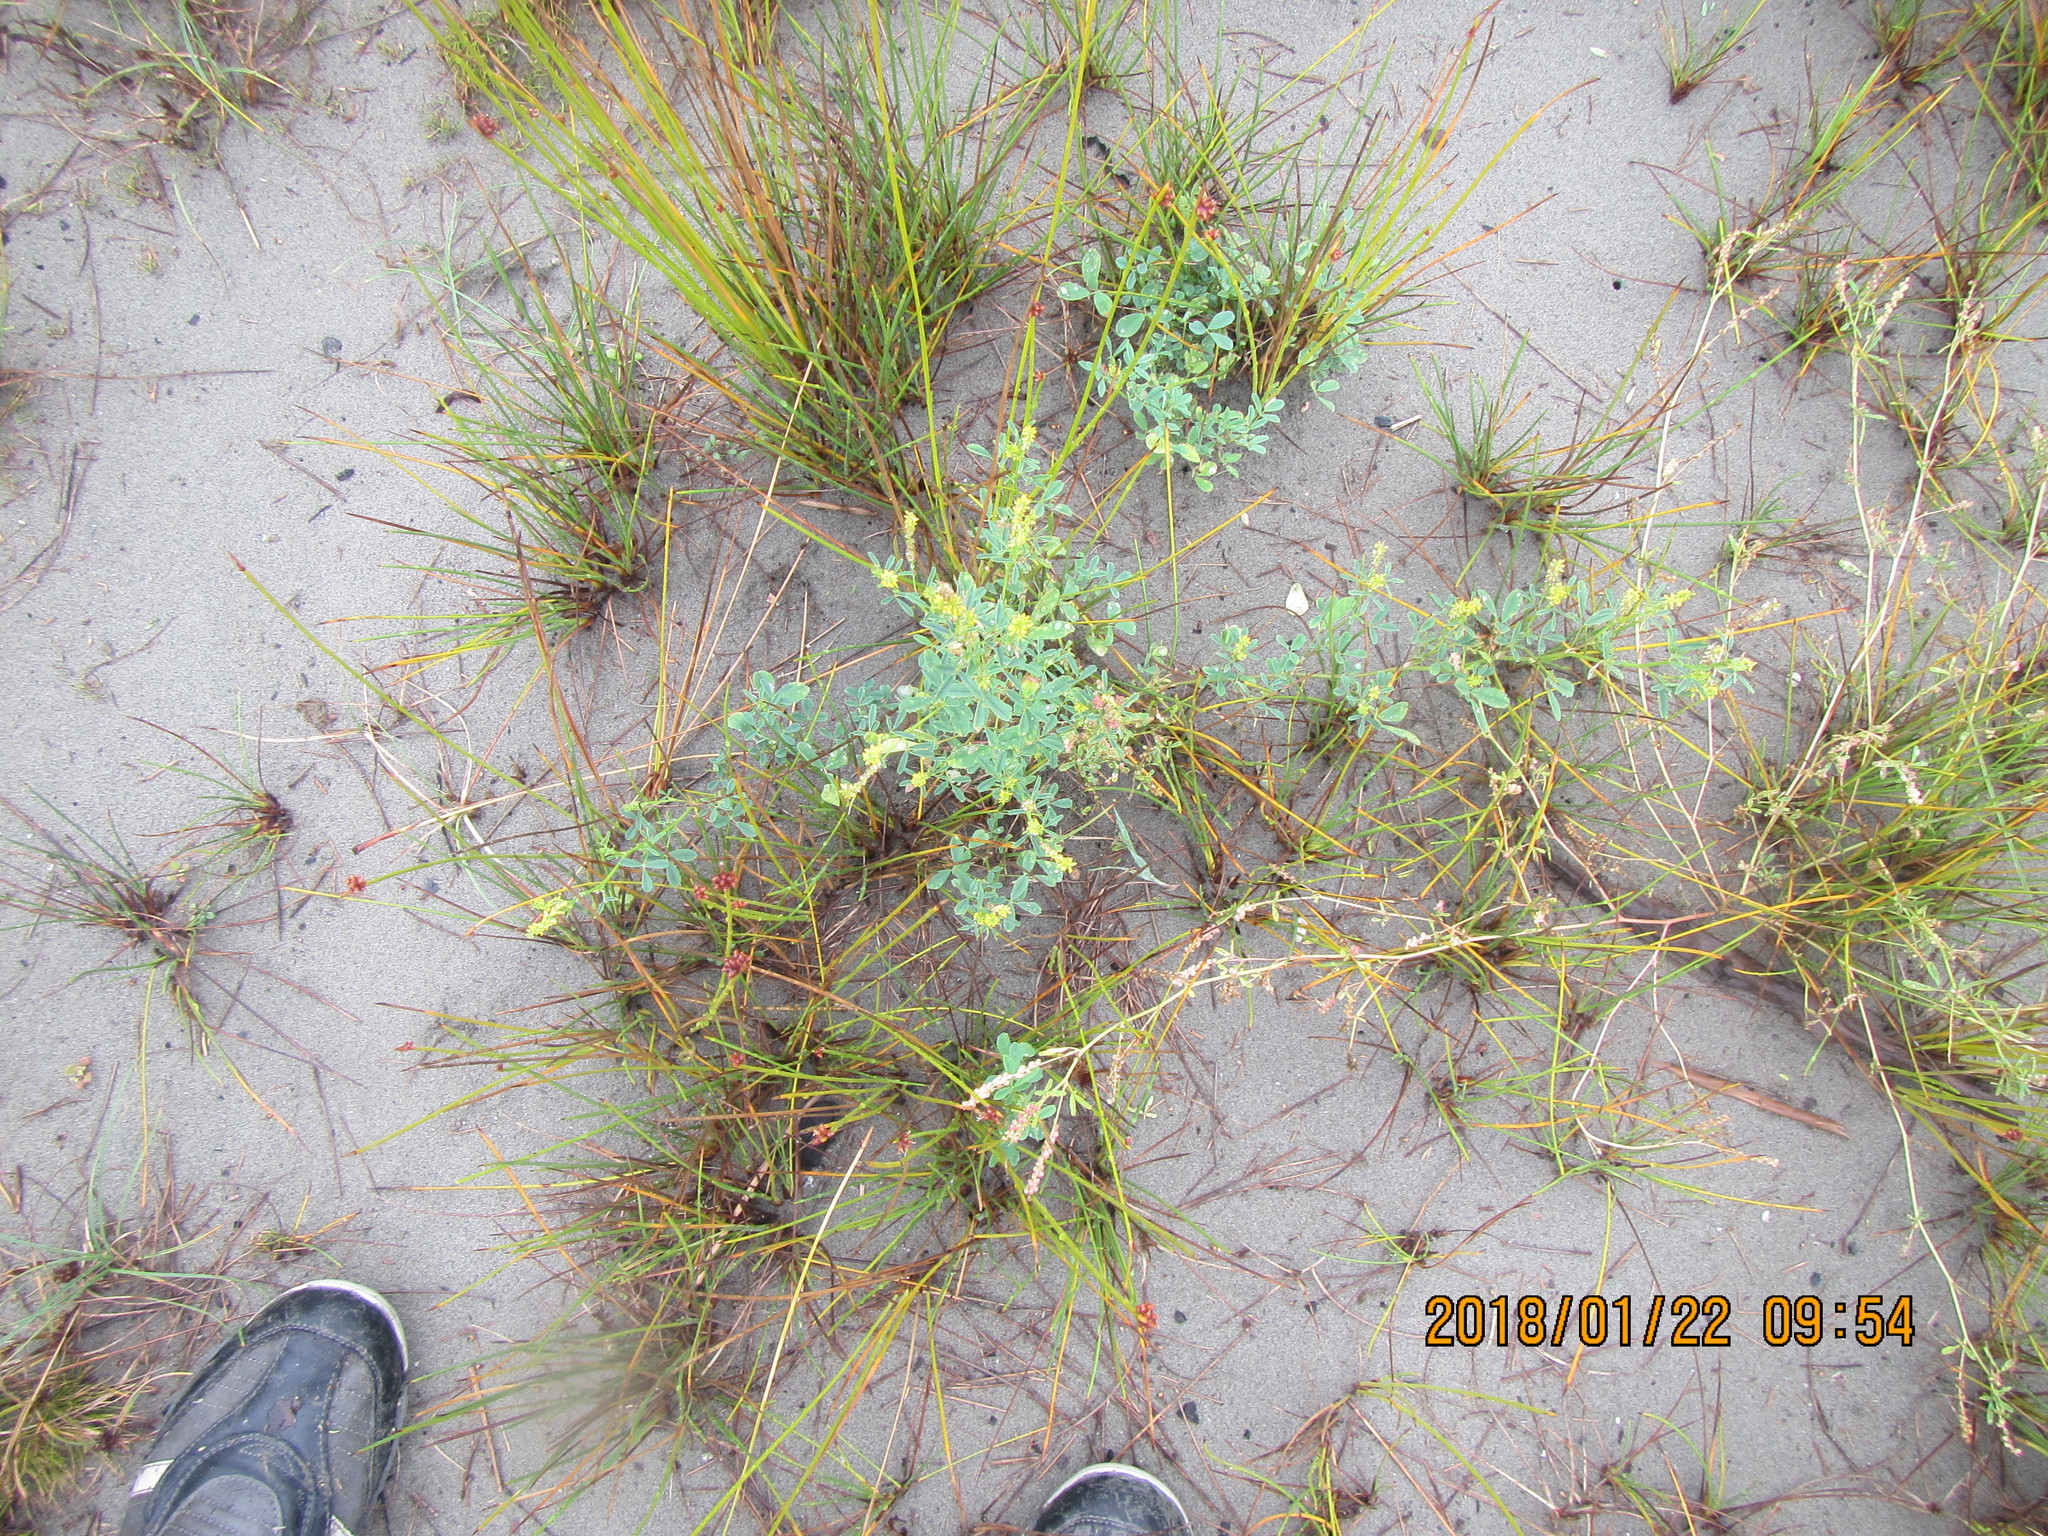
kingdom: Plantae
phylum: Tracheophyta
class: Magnoliopsida
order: Fabales
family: Fabaceae
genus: Melilotus
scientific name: Melilotus indicus
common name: Small melilot
